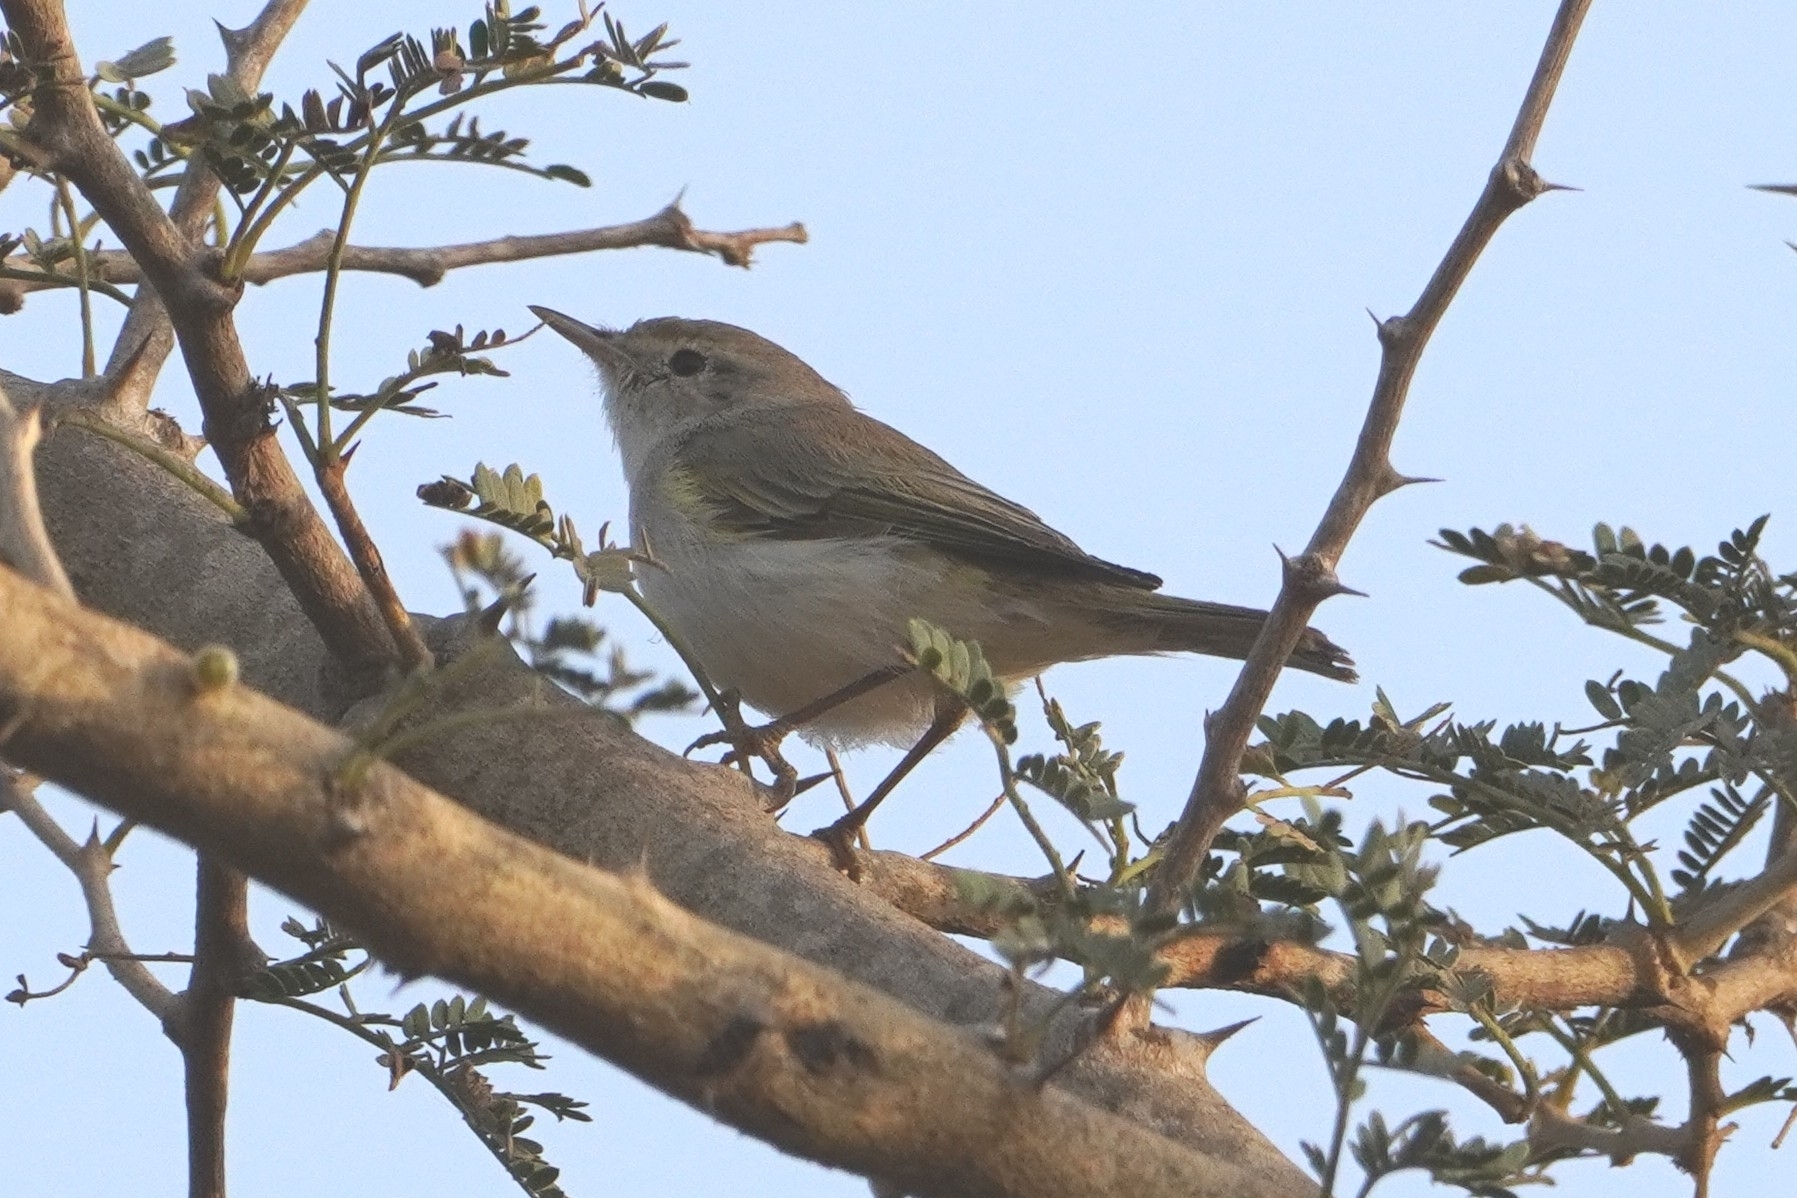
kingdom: Animalia
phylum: Chordata
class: Aves
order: Passeriformes
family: Phylloscopidae
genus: Phylloscopus
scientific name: Phylloscopus bonelli
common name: Western bonelli's warbler
